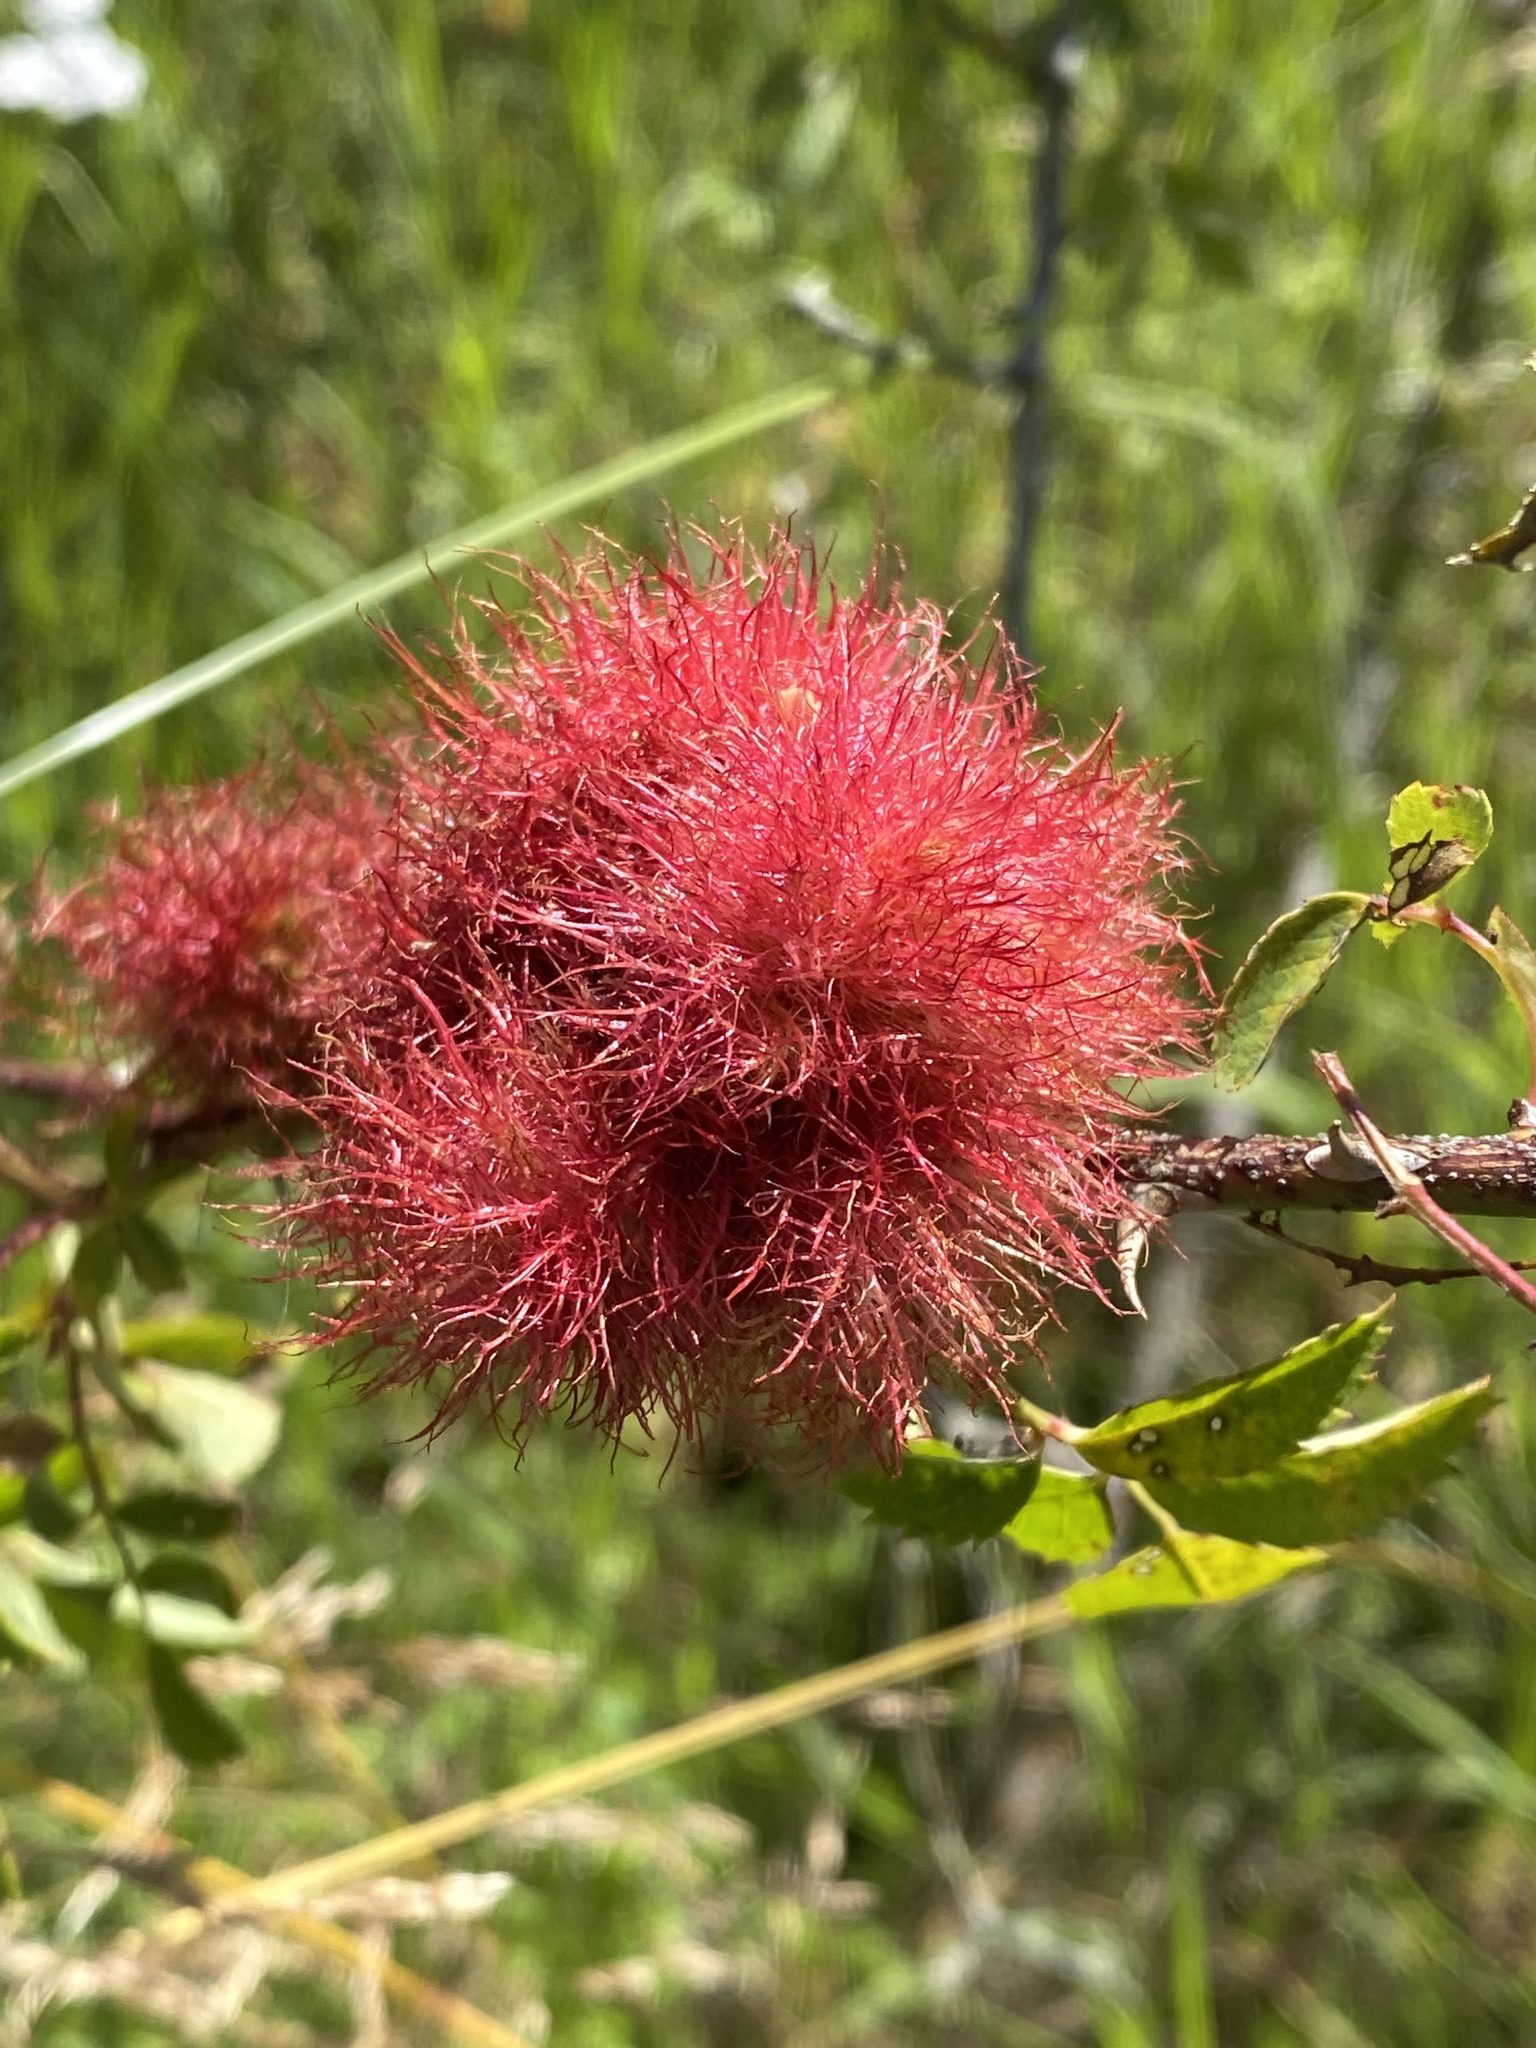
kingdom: Animalia
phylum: Arthropoda
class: Insecta
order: Hymenoptera
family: Cynipidae
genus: Diplolepis
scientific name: Diplolepis rosae
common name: Bedeguar gall
